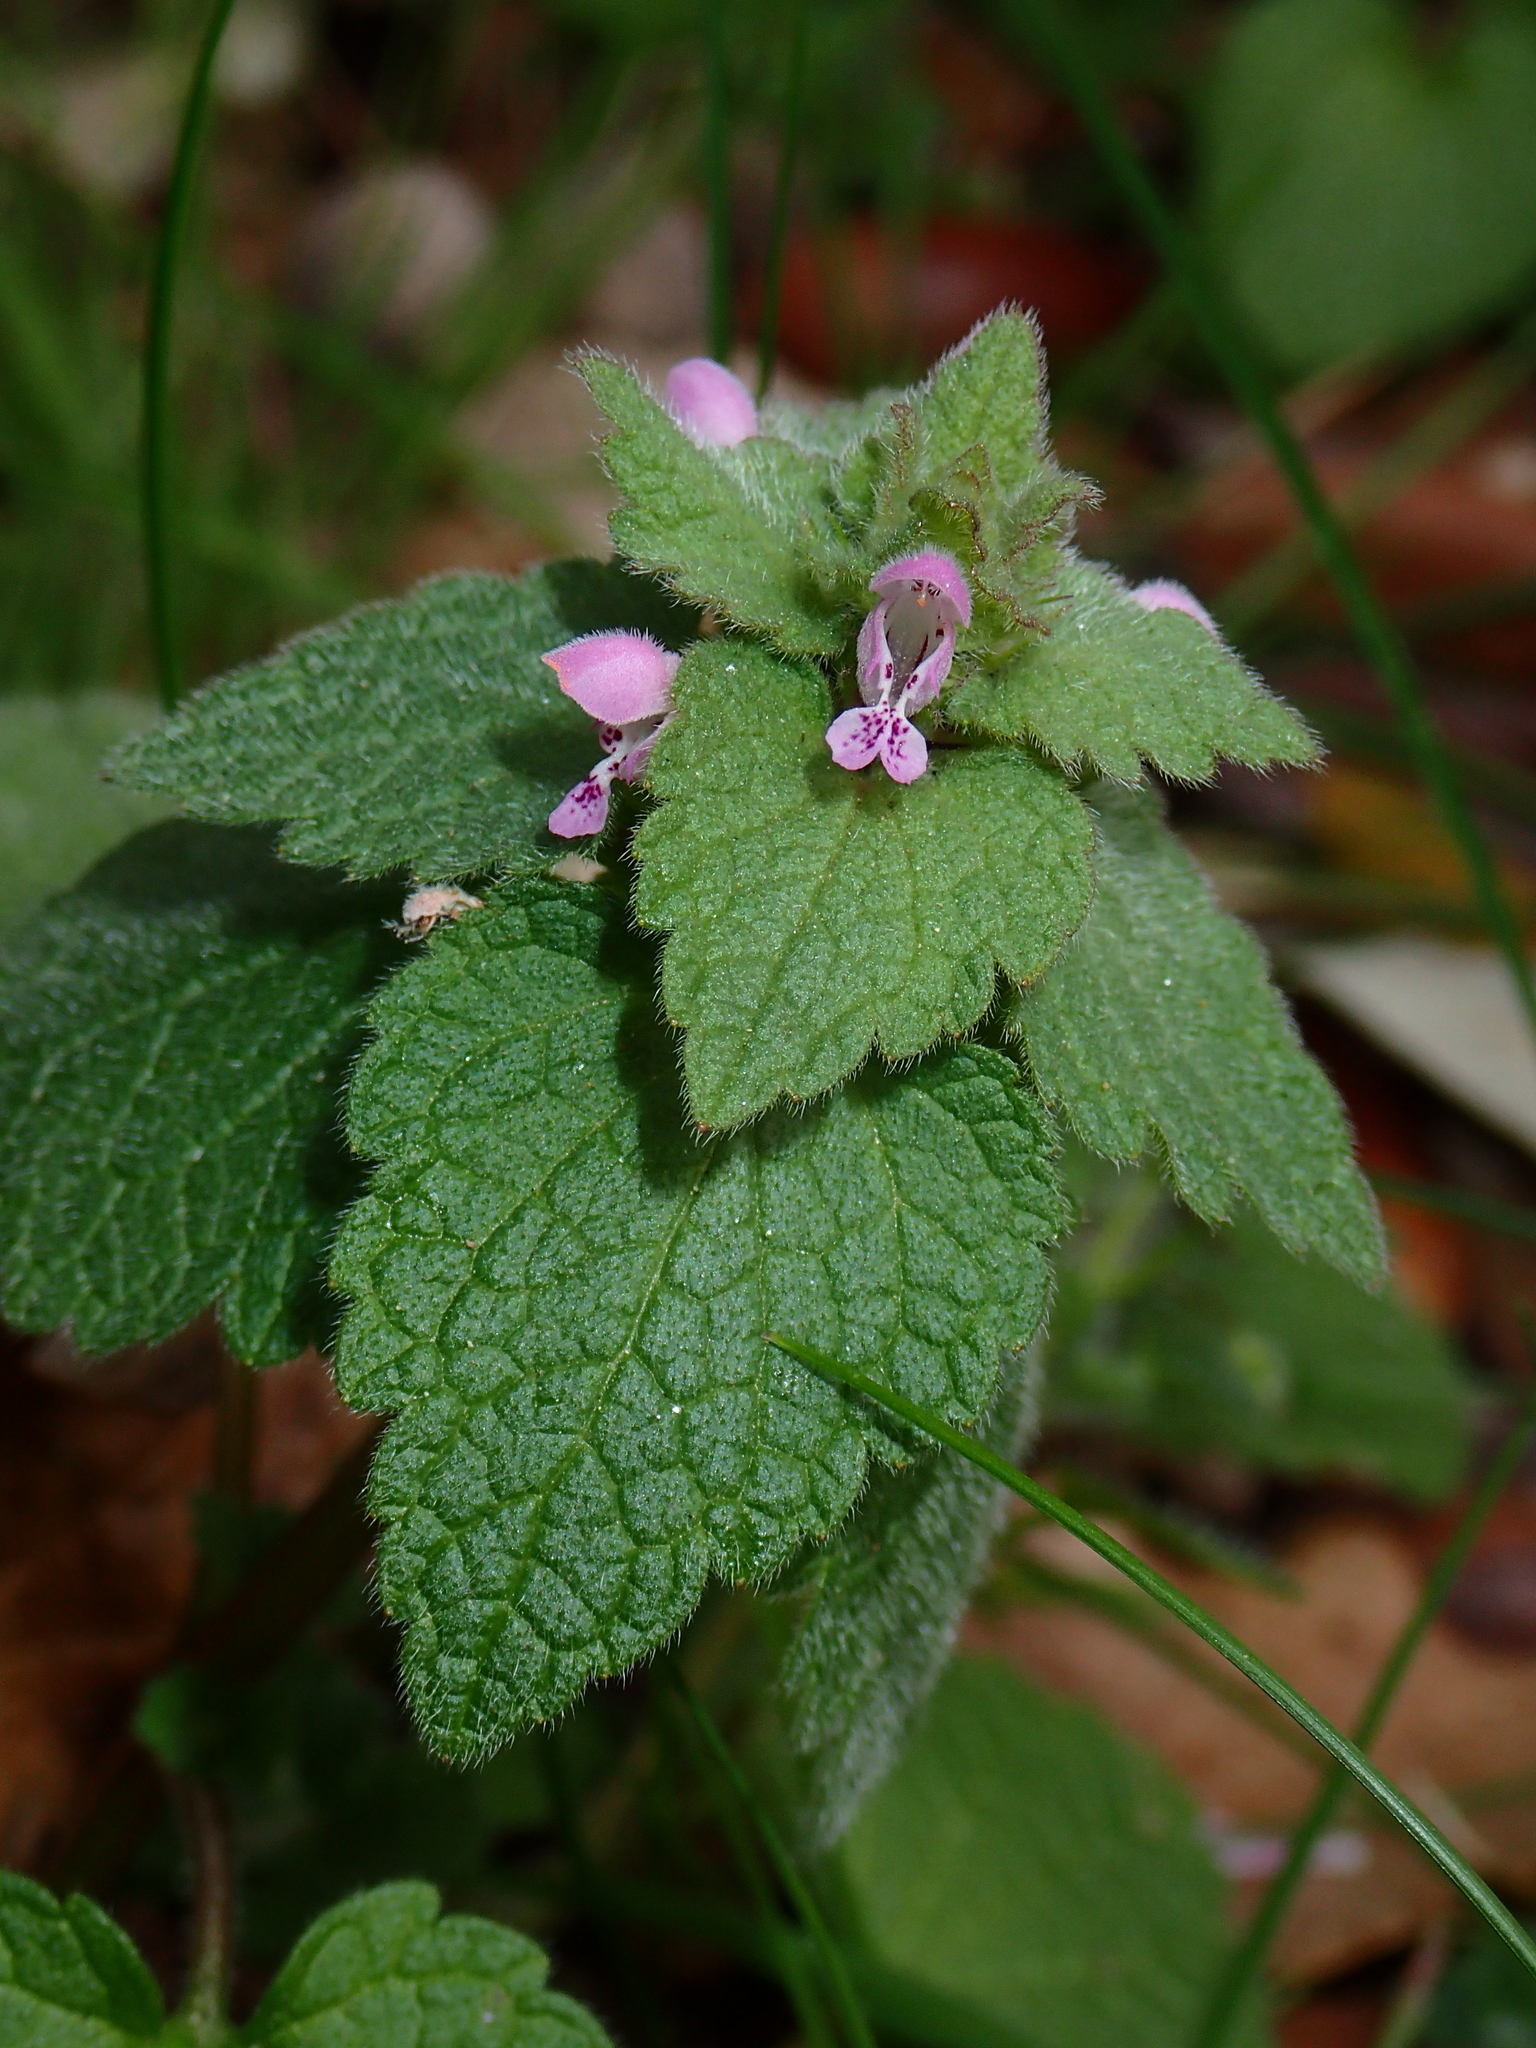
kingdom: Plantae
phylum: Tracheophyta
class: Magnoliopsida
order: Lamiales
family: Lamiaceae
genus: Lamium
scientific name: Lamium purpureum
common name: Red dead-nettle
